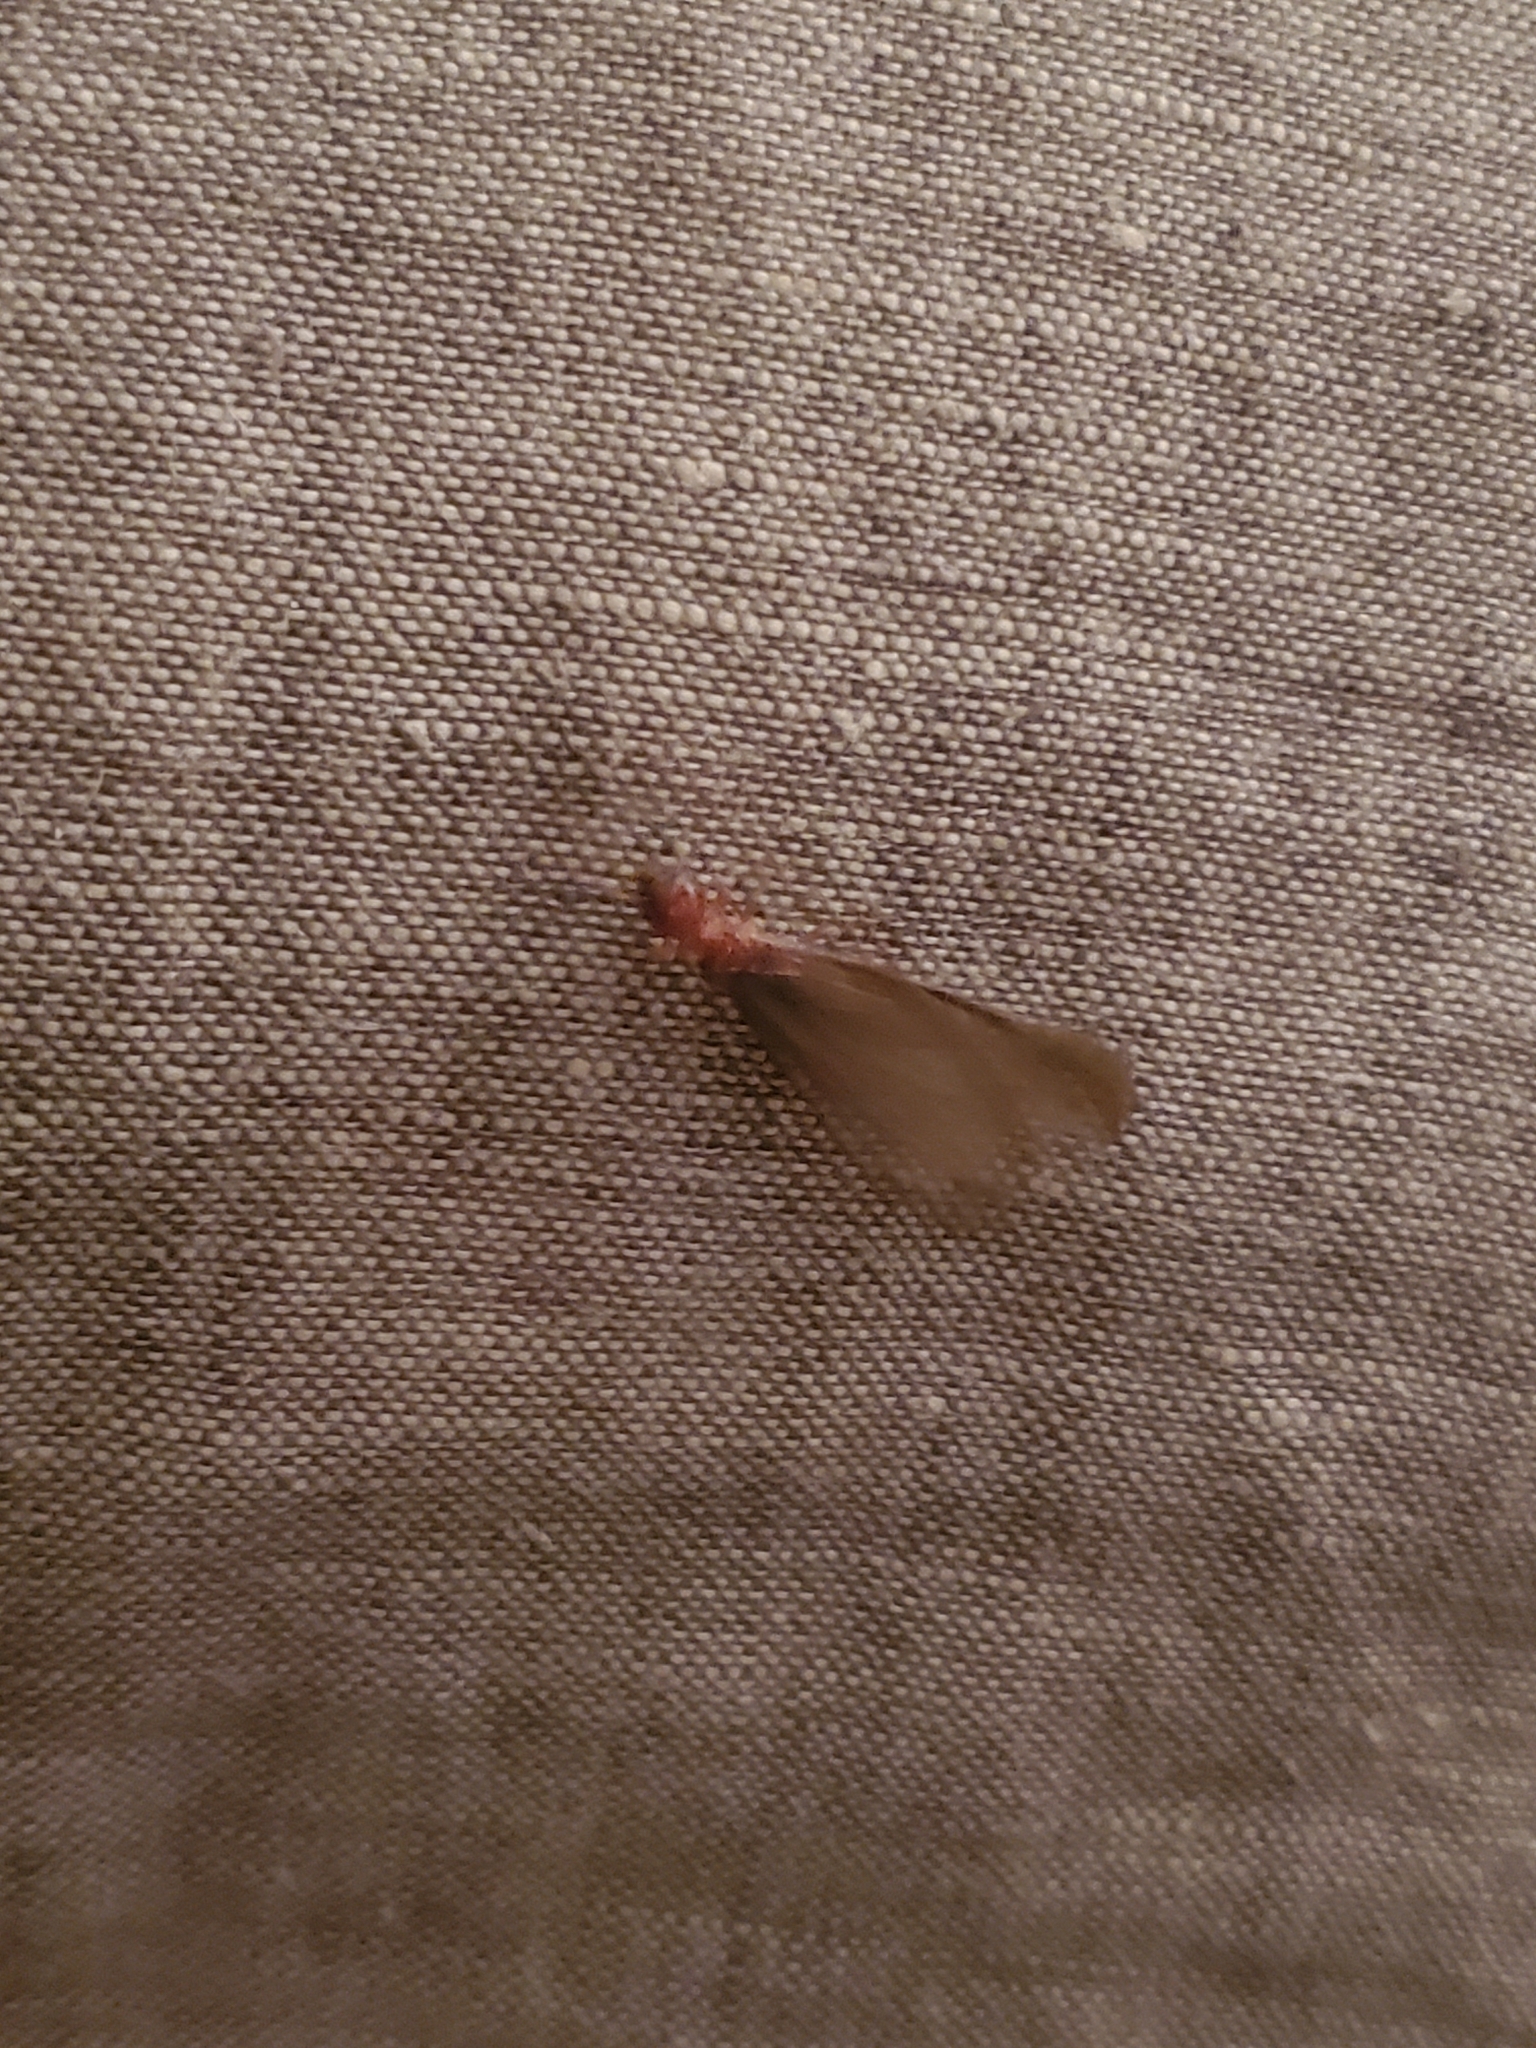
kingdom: Animalia
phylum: Arthropoda
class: Insecta
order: Blattodea
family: Archotermopsidae
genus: Zootermopsis
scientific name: Zootermopsis angusticollis
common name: Rottenwood termite
